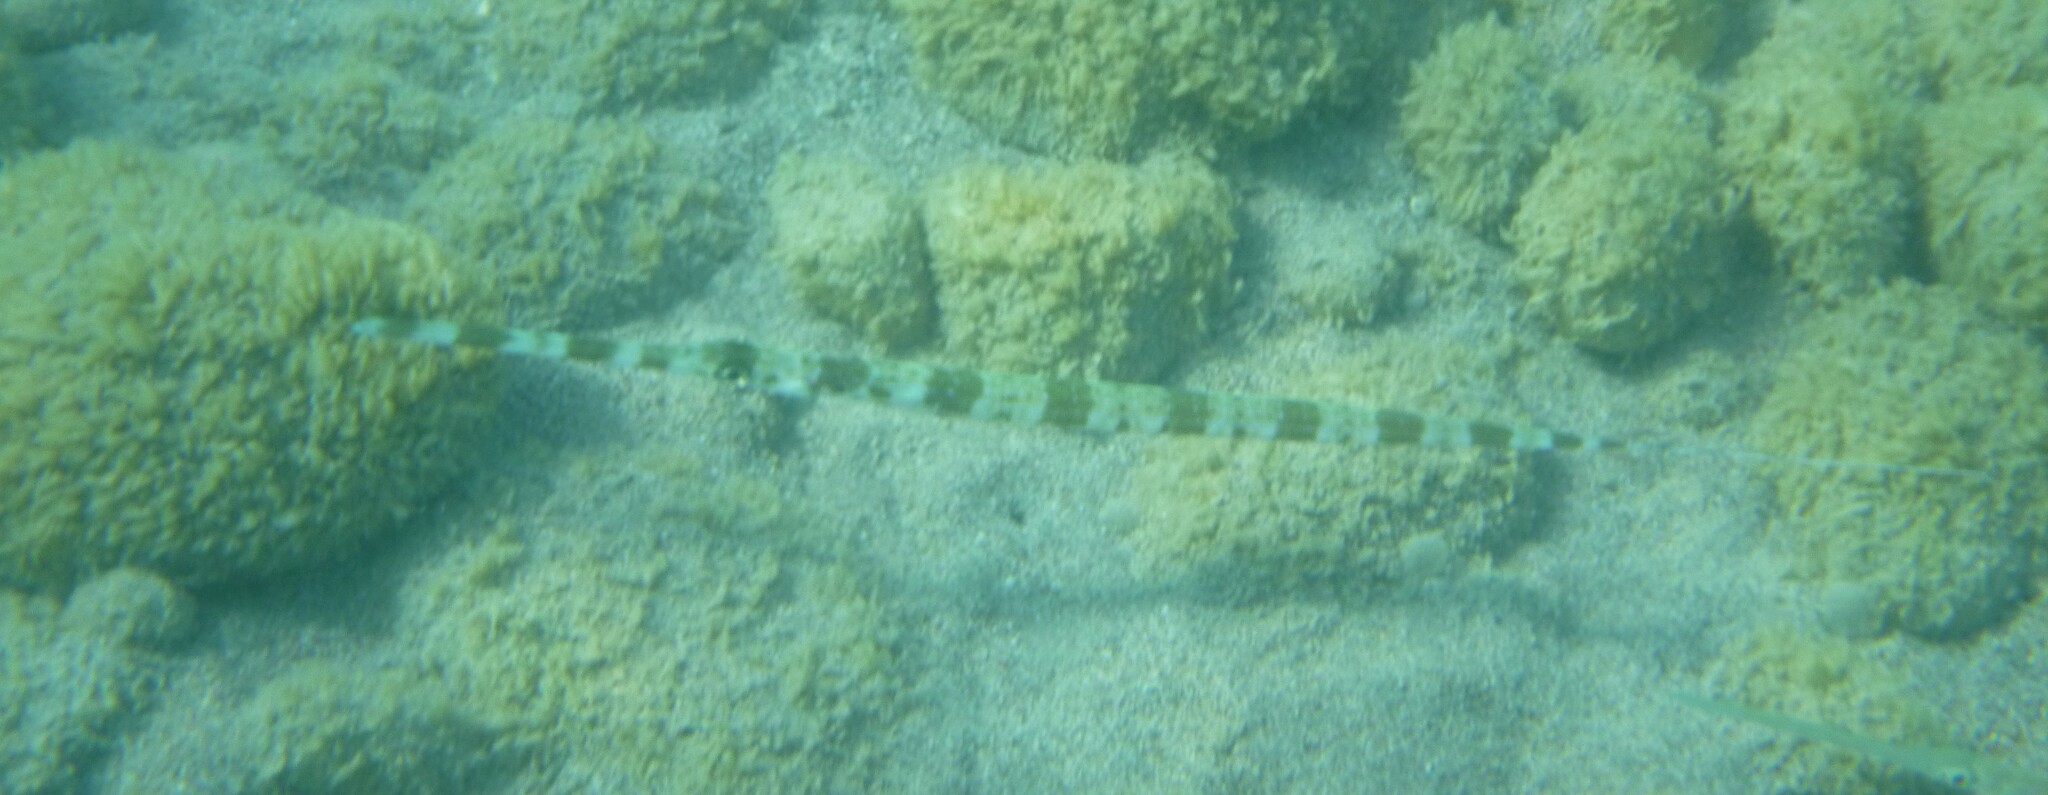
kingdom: Animalia
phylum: Chordata
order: Syngnathiformes
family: Fistulariidae
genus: Fistularia
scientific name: Fistularia commersonii
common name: Bluespotted cornetfish
